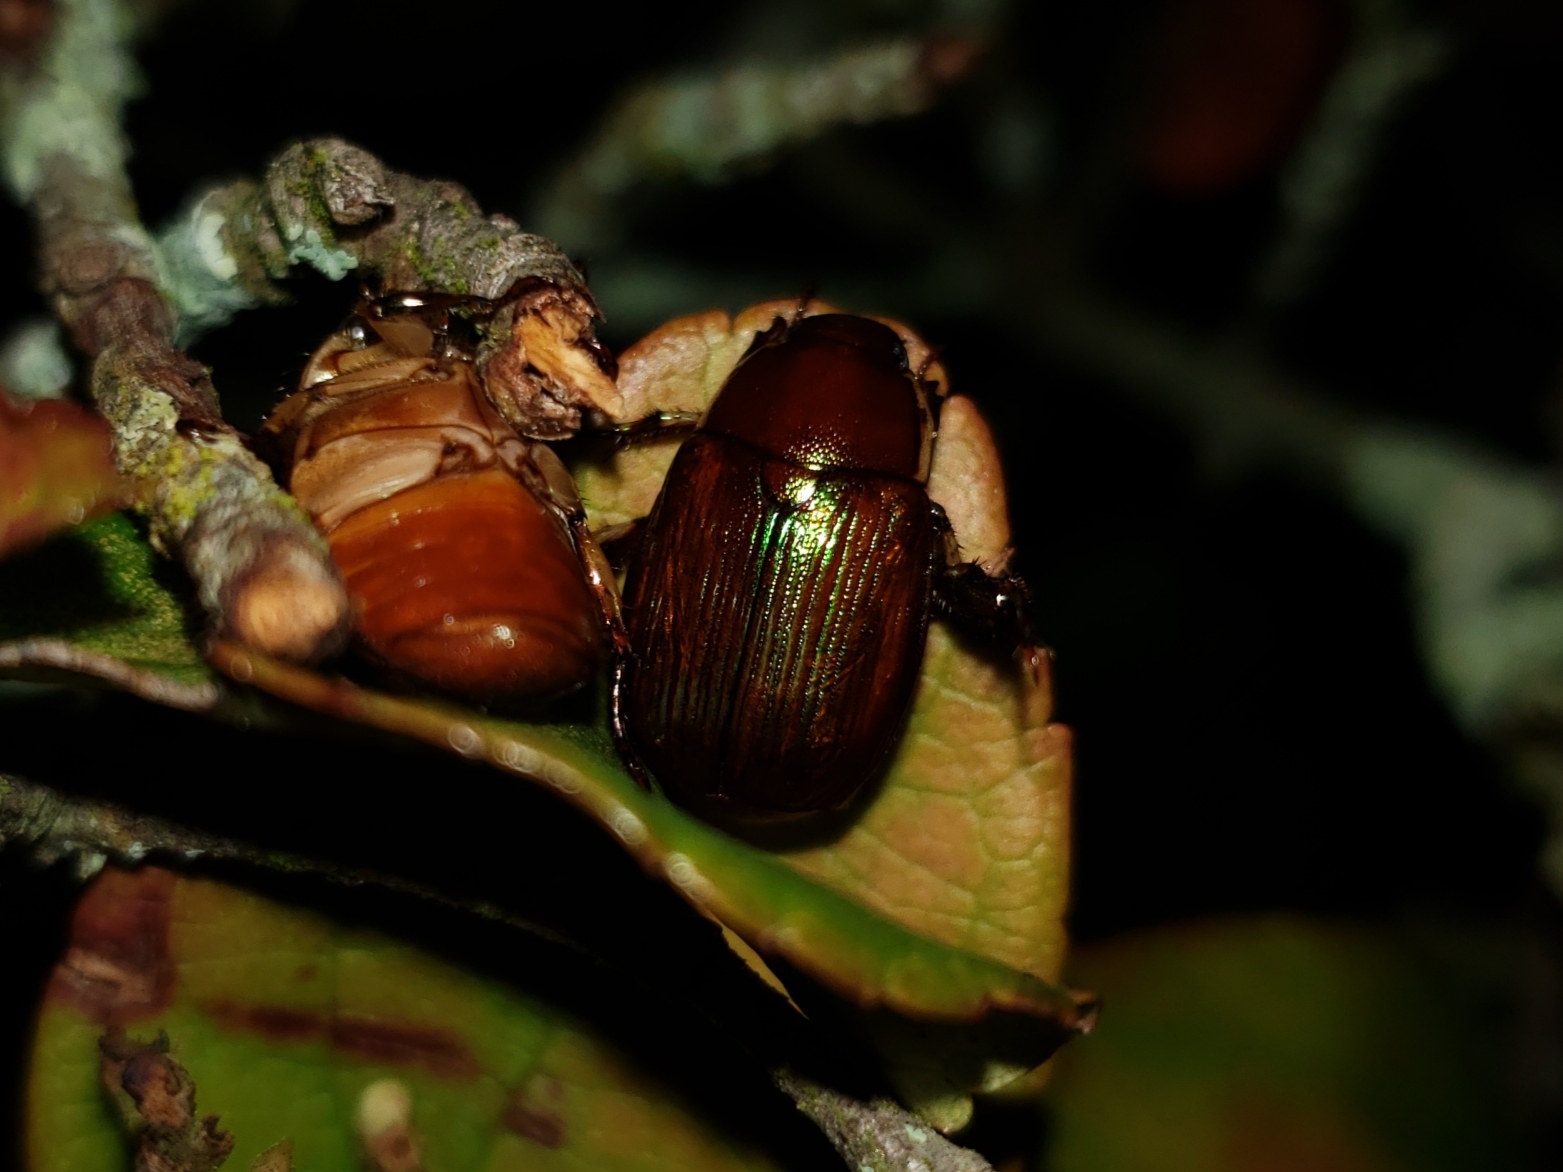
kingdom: Animalia
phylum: Arthropoda
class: Insecta
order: Coleoptera
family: Scarabaeidae
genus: Callistethus
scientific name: Callistethus marginatus
